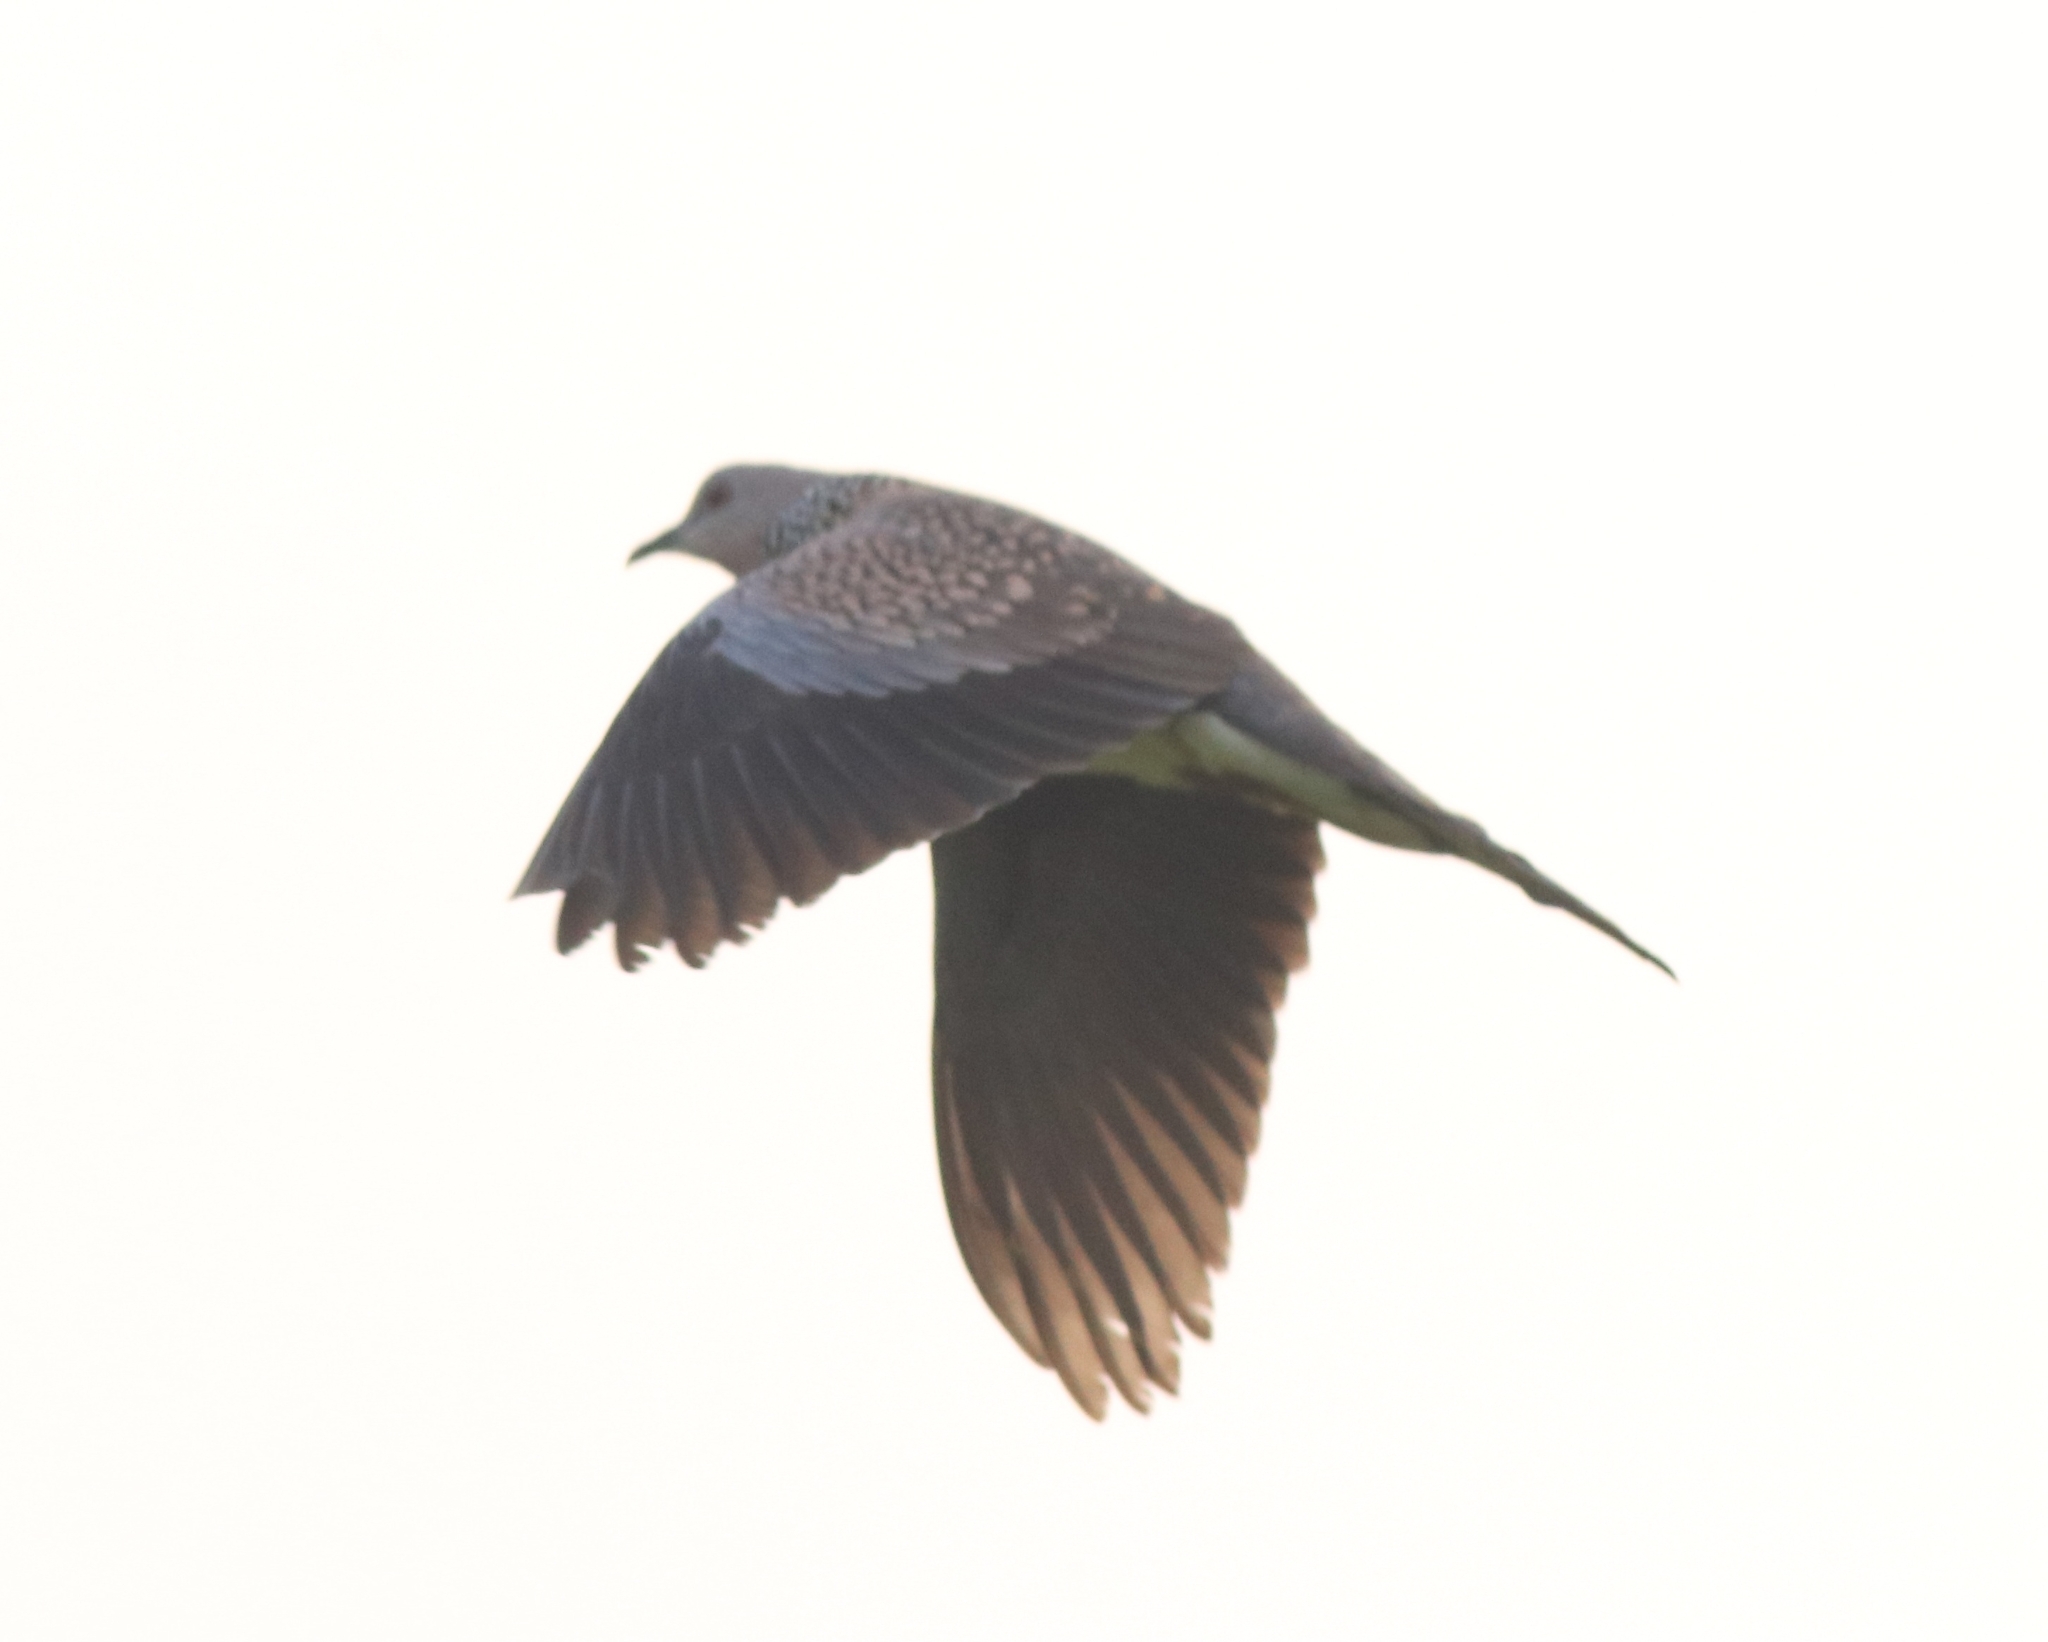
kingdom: Animalia
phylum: Chordata
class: Aves
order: Columbiformes
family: Columbidae
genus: Spilopelia
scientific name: Spilopelia chinensis
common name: Spotted dove
